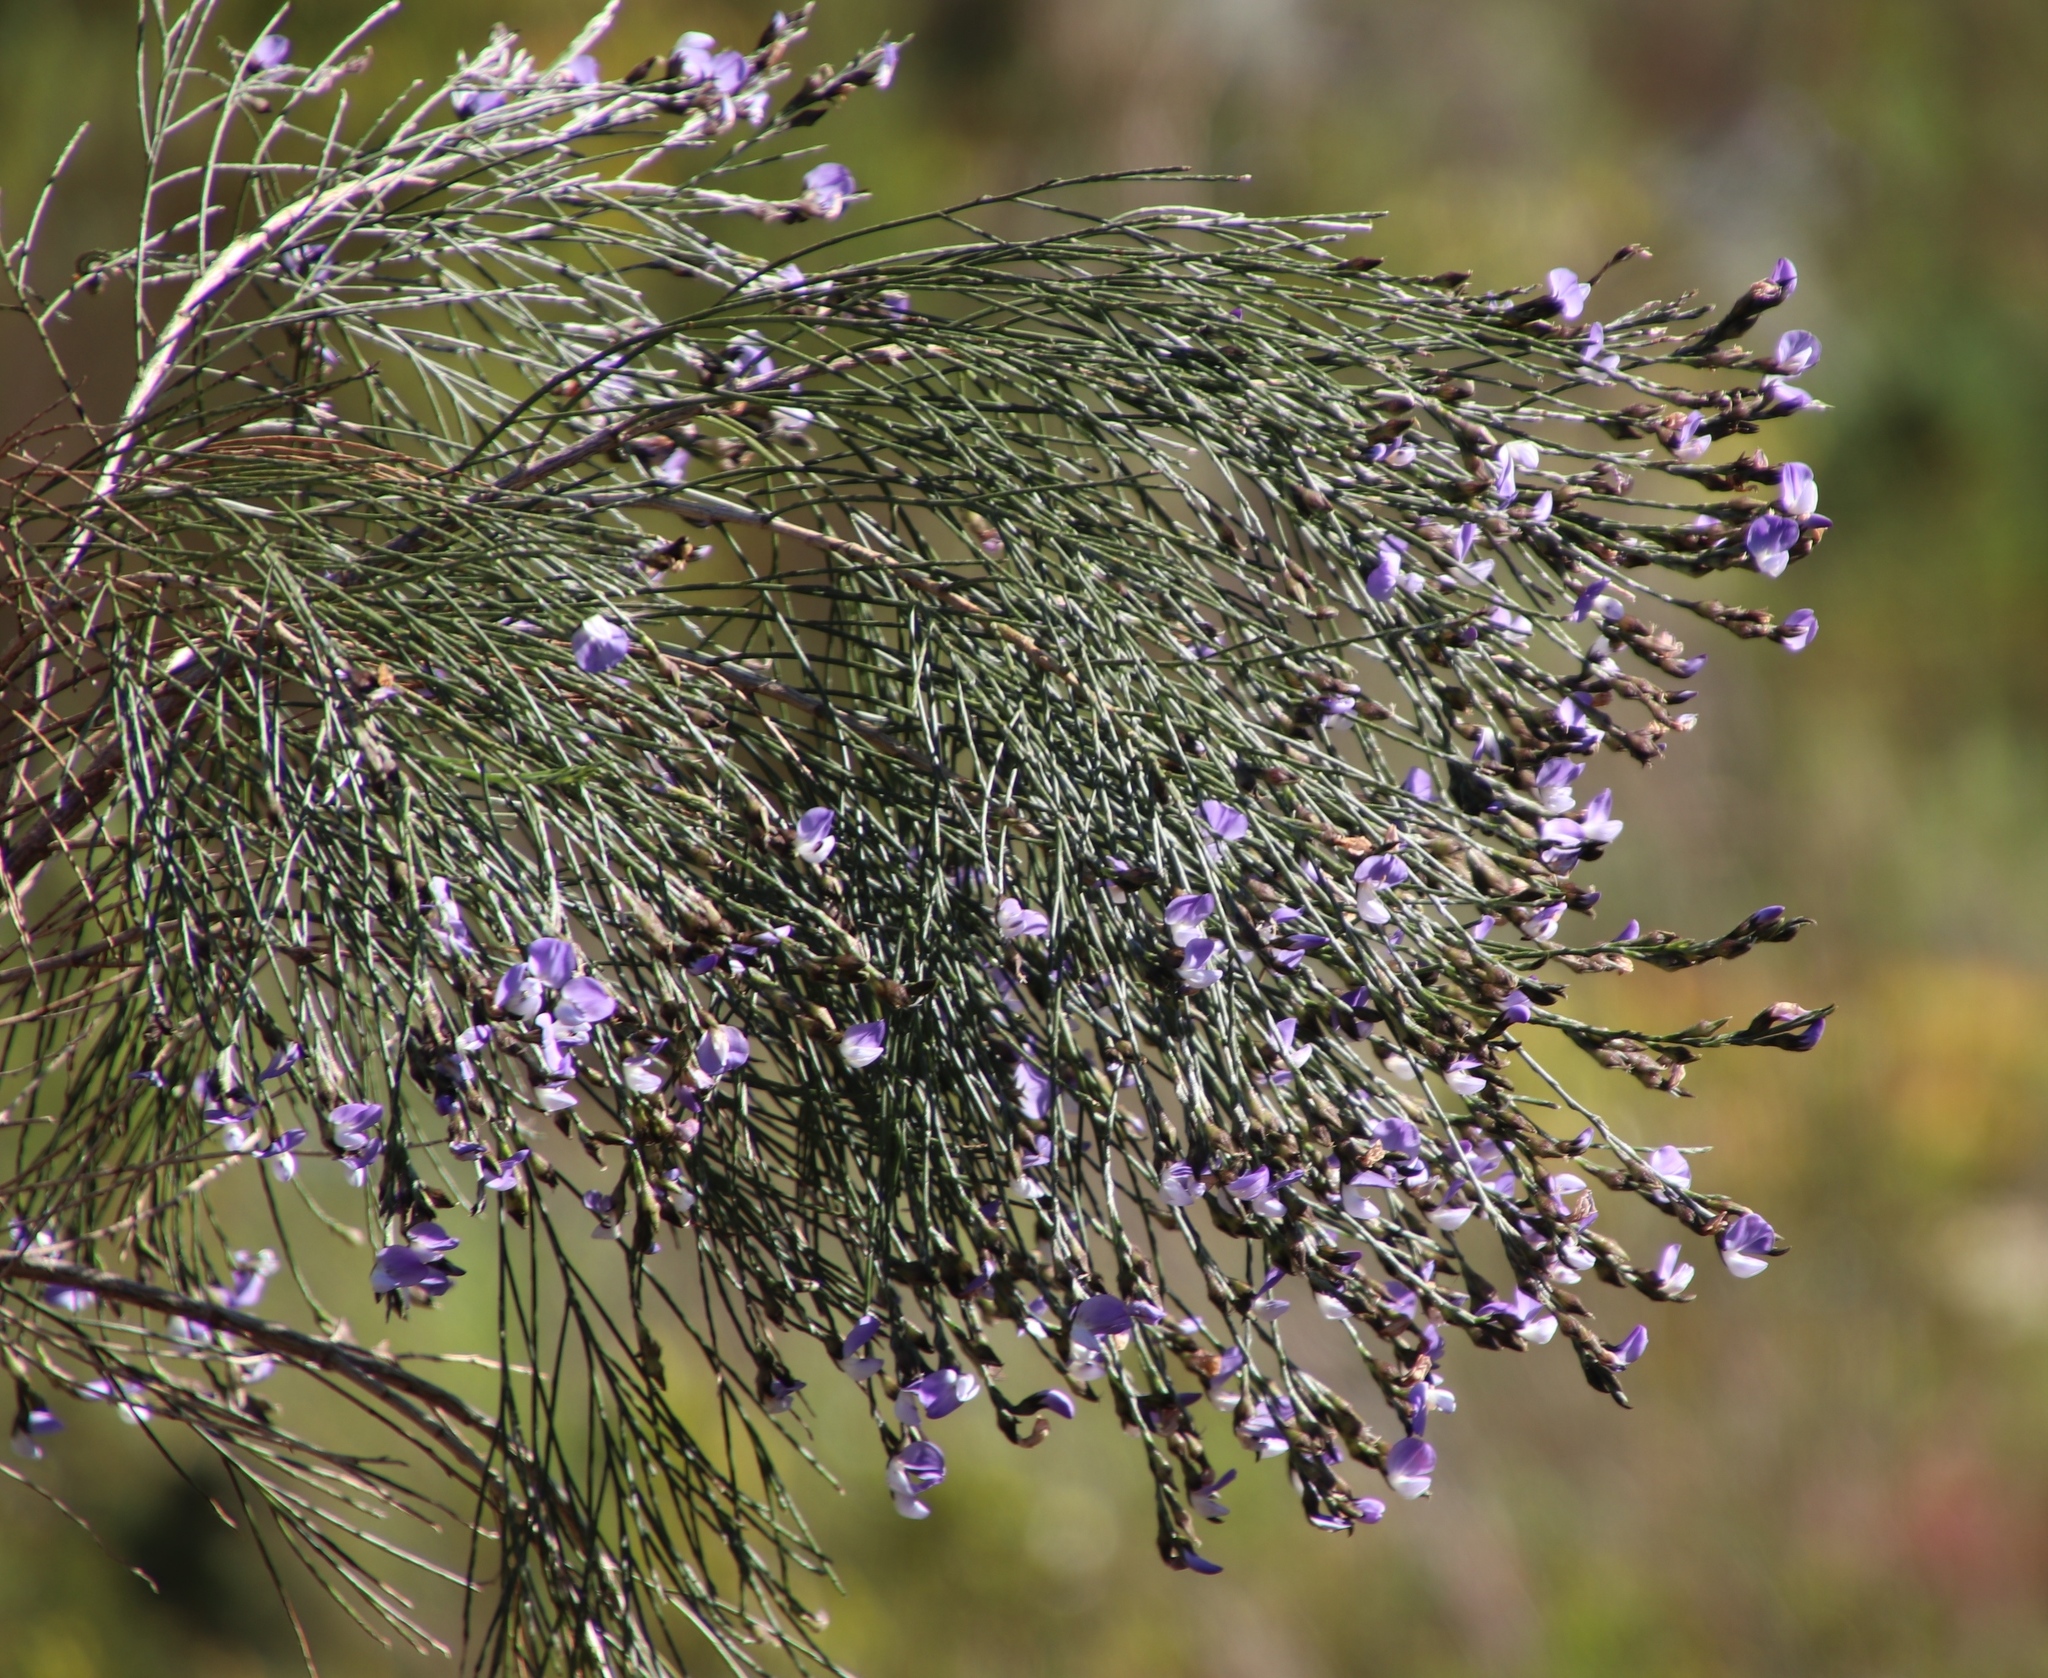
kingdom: Plantae
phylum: Tracheophyta
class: Magnoliopsida
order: Fabales
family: Fabaceae
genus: Psoralea
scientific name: Psoralea pullata
